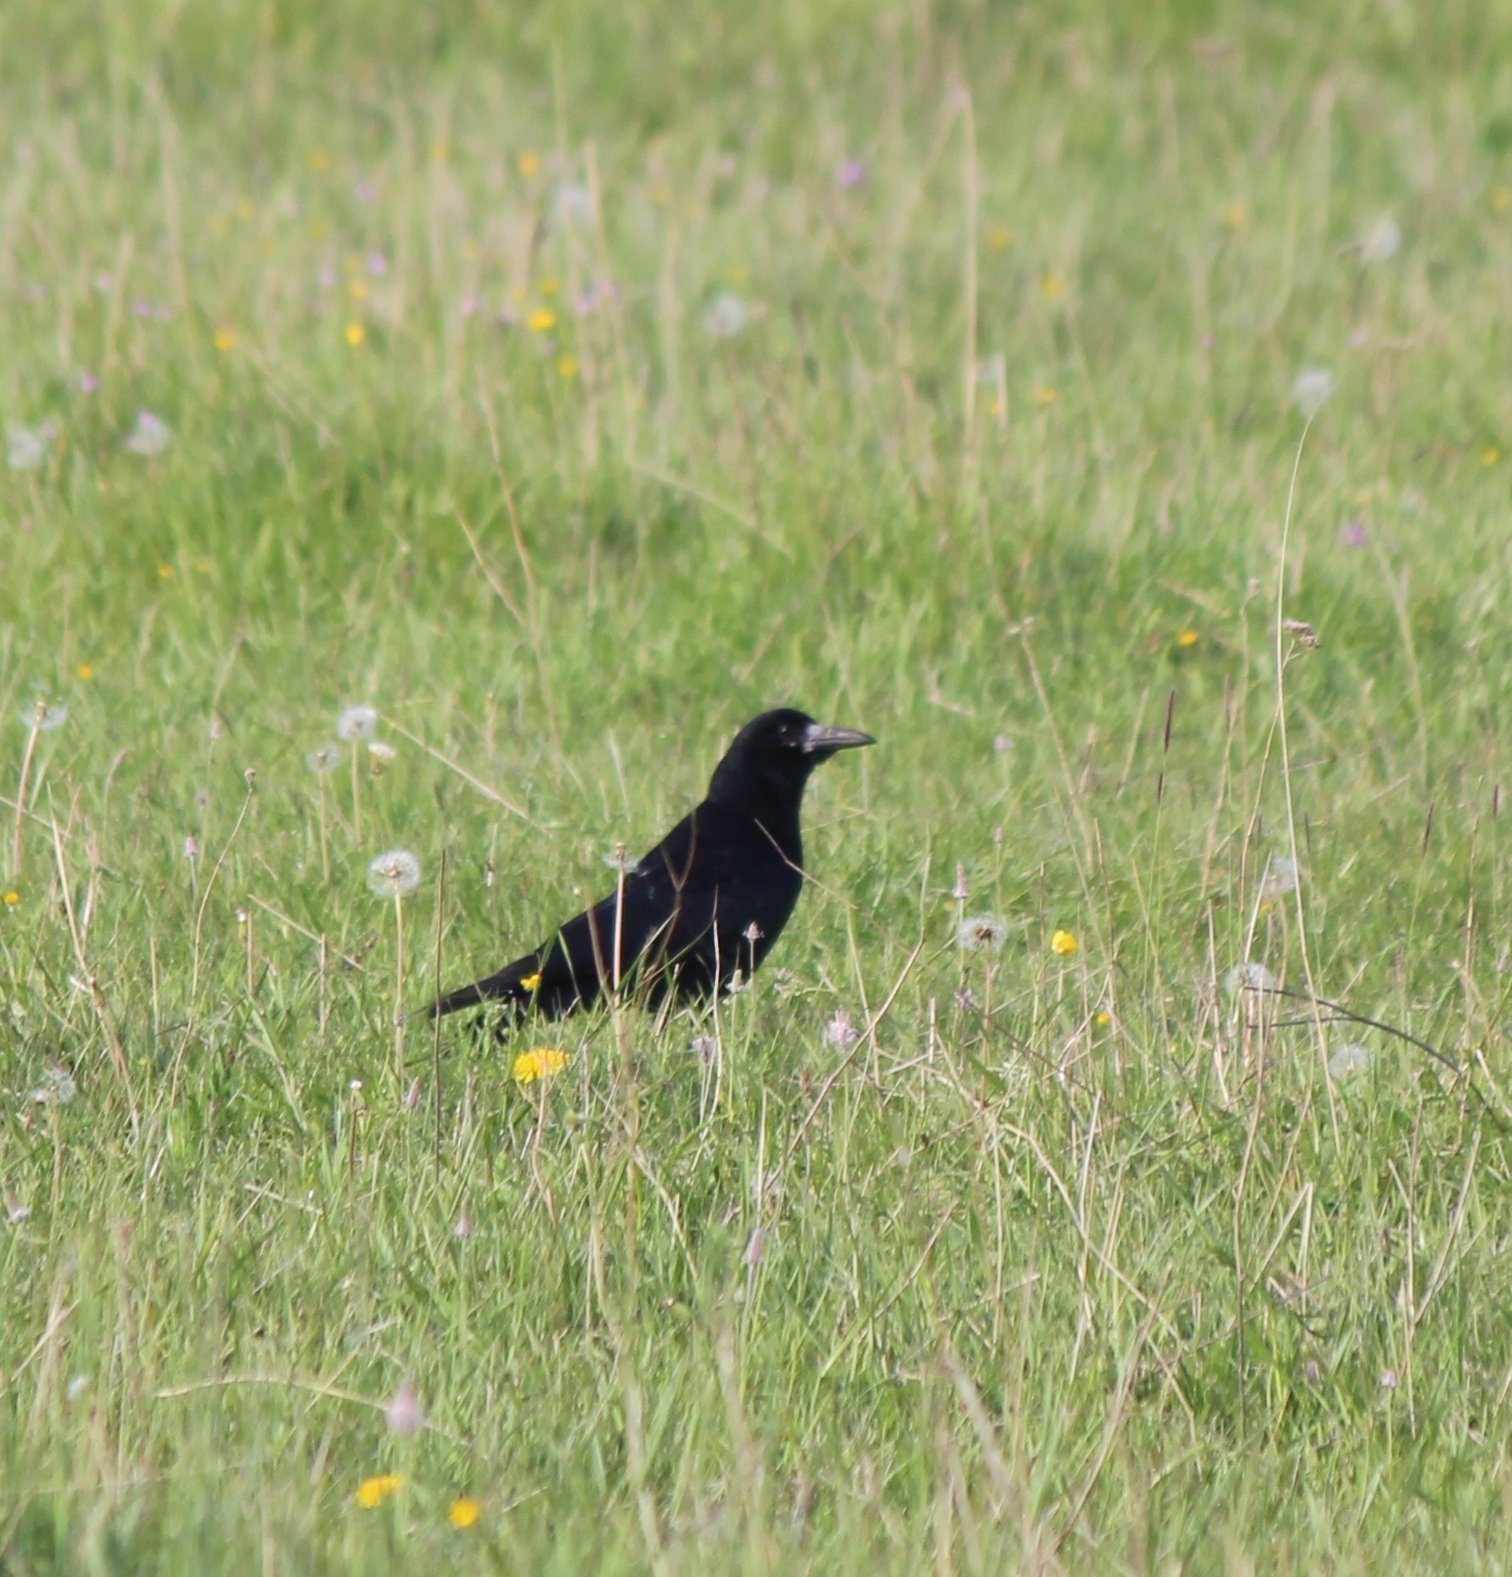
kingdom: Animalia
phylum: Chordata
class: Aves
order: Passeriformes
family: Corvidae
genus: Corvus
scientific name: Corvus frugilegus
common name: Rook
